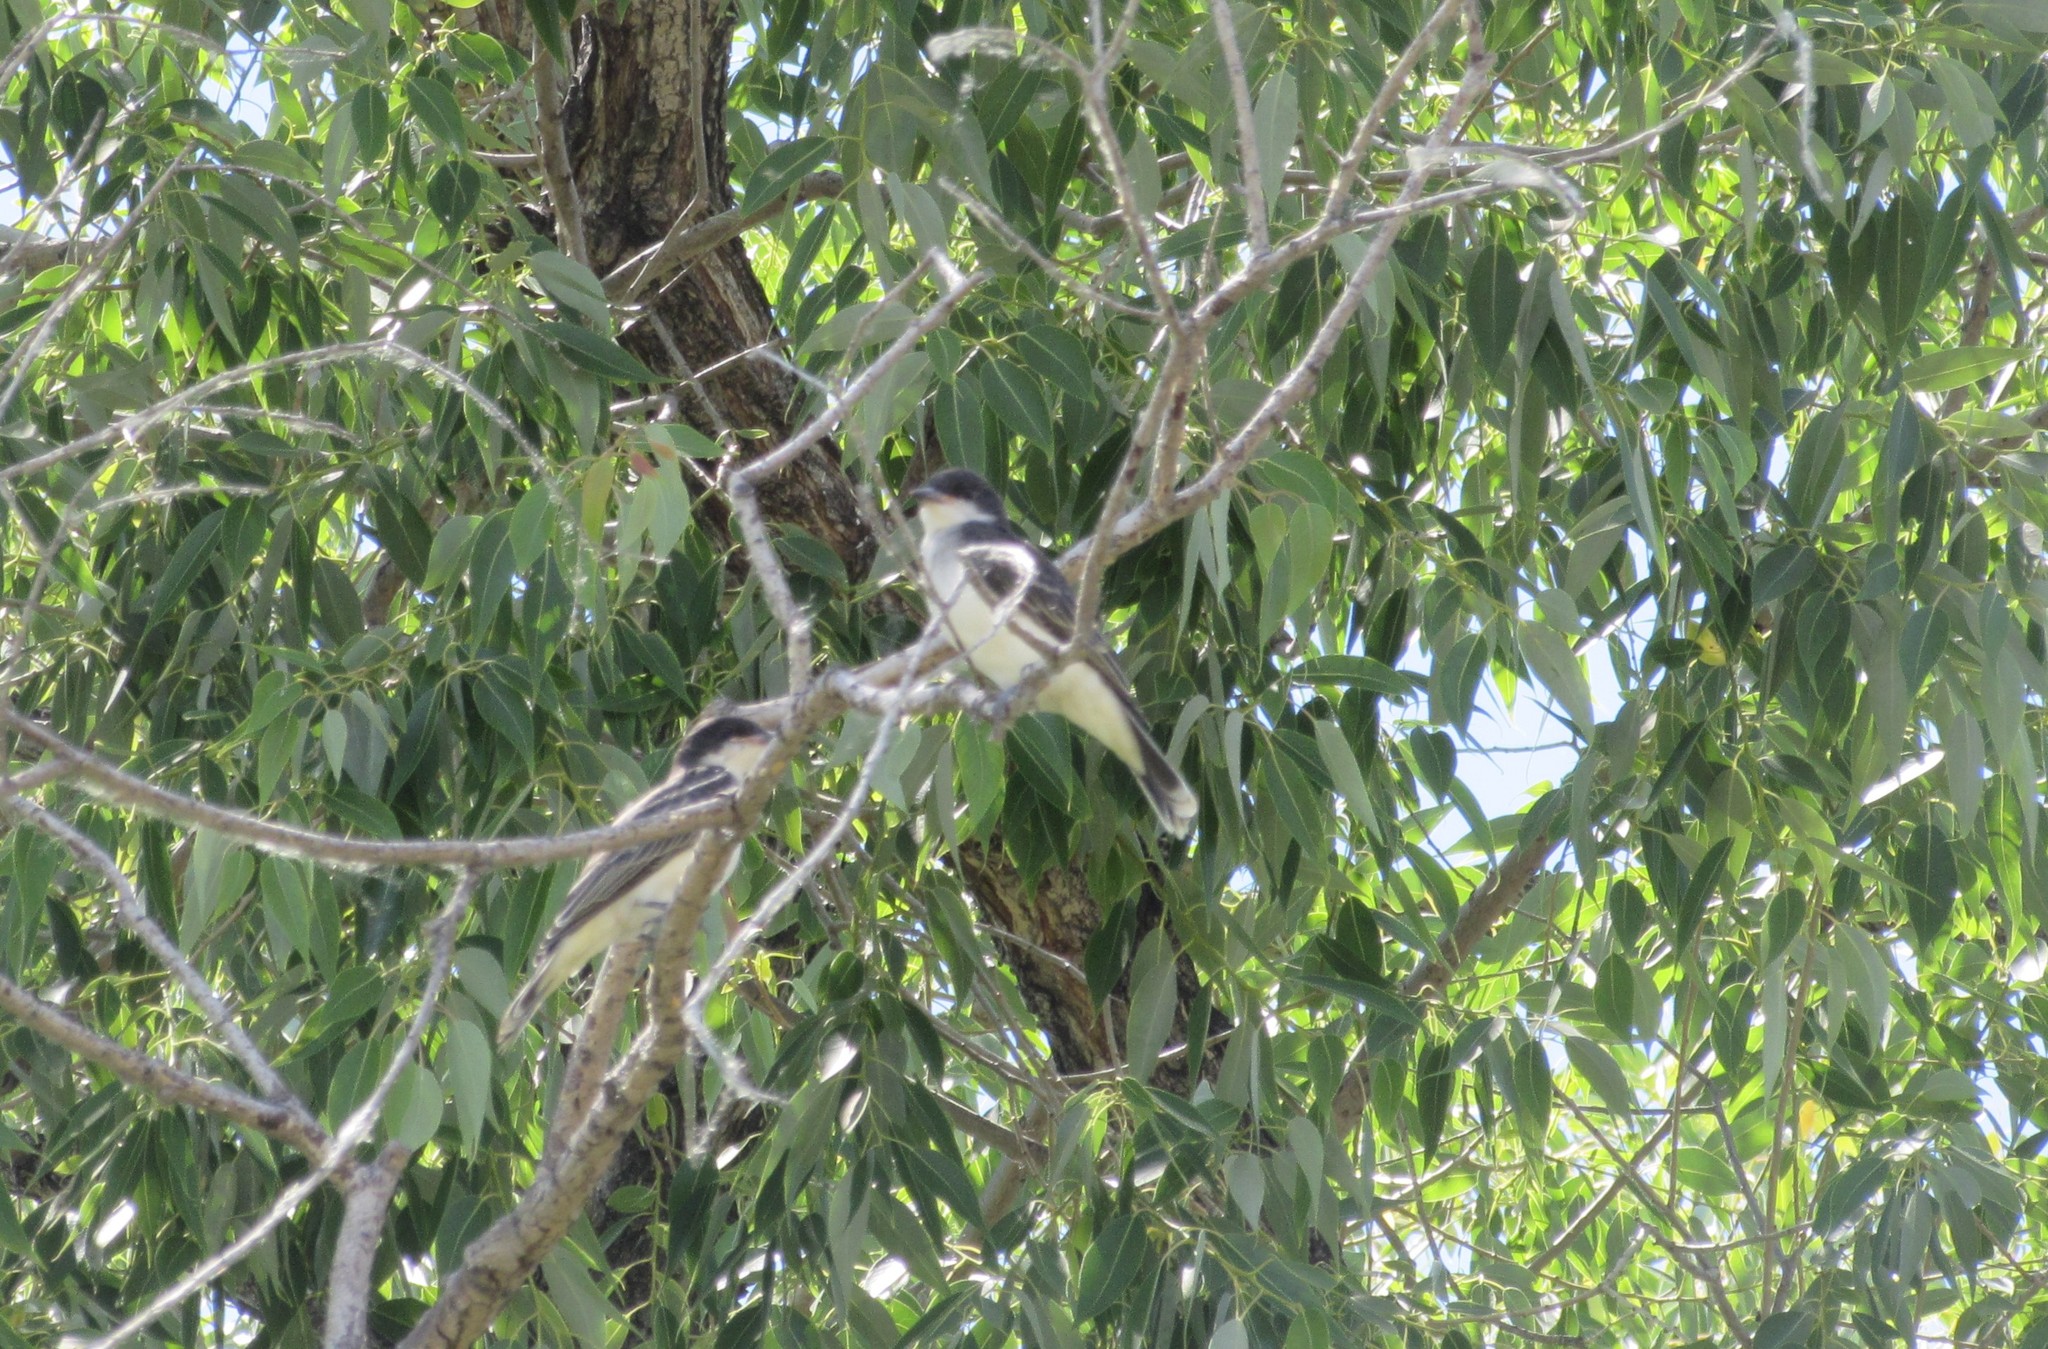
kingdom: Animalia
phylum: Chordata
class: Aves
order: Passeriformes
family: Tyrannidae
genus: Tyrannus
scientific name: Tyrannus tyrannus
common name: Eastern kingbird
